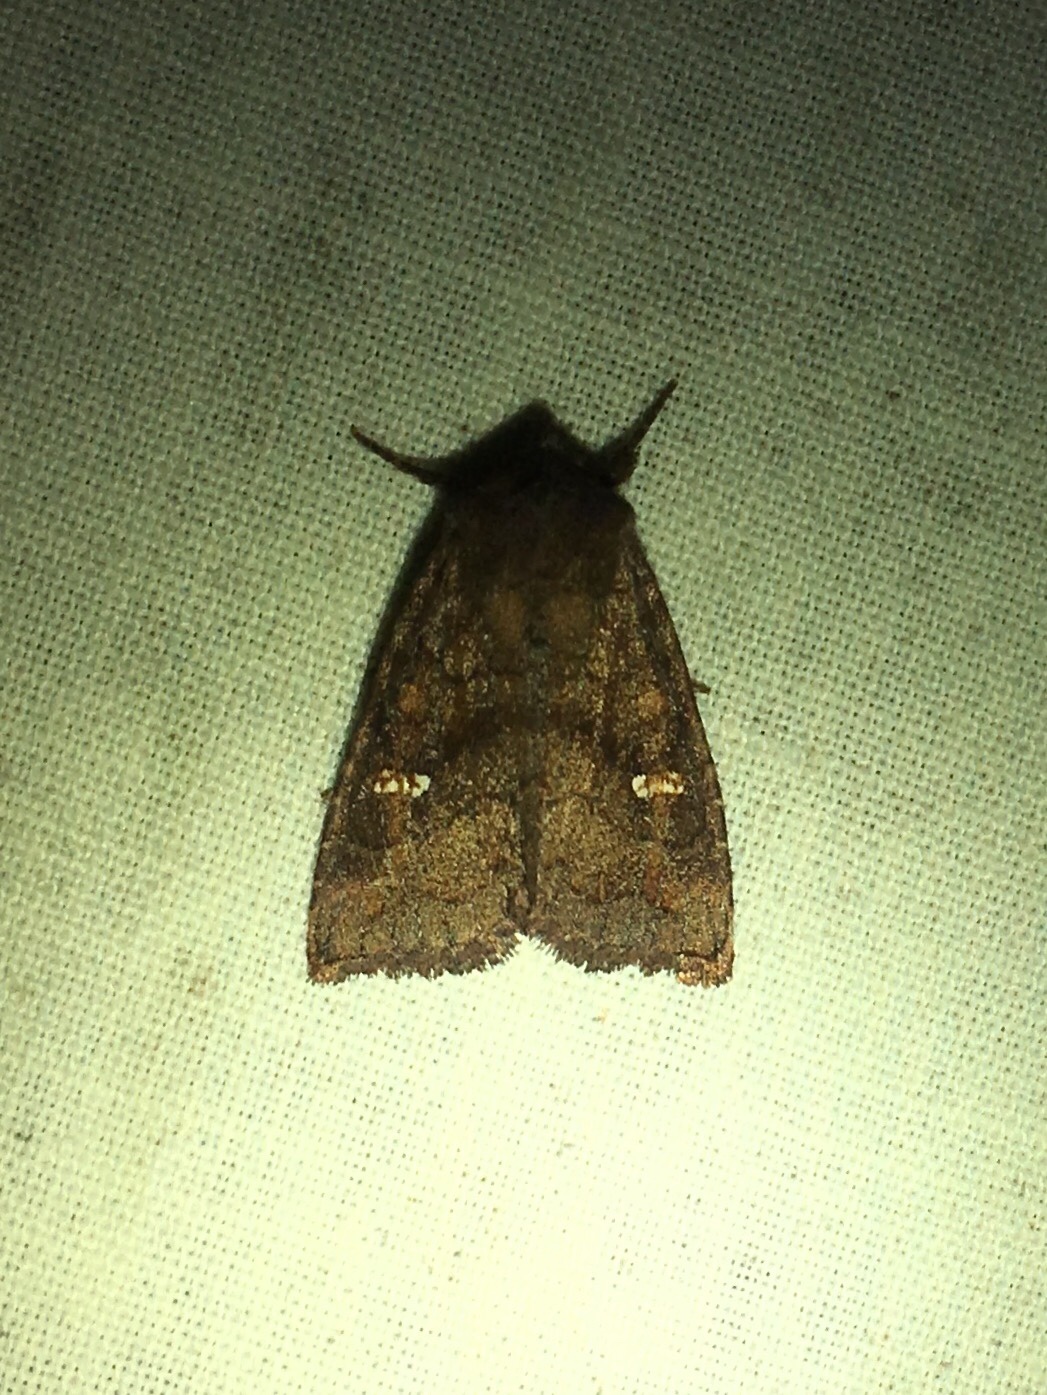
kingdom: Animalia
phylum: Arthropoda
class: Insecta
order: Lepidoptera
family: Noctuidae
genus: Tricholita
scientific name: Tricholita signata
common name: Signate quaker
